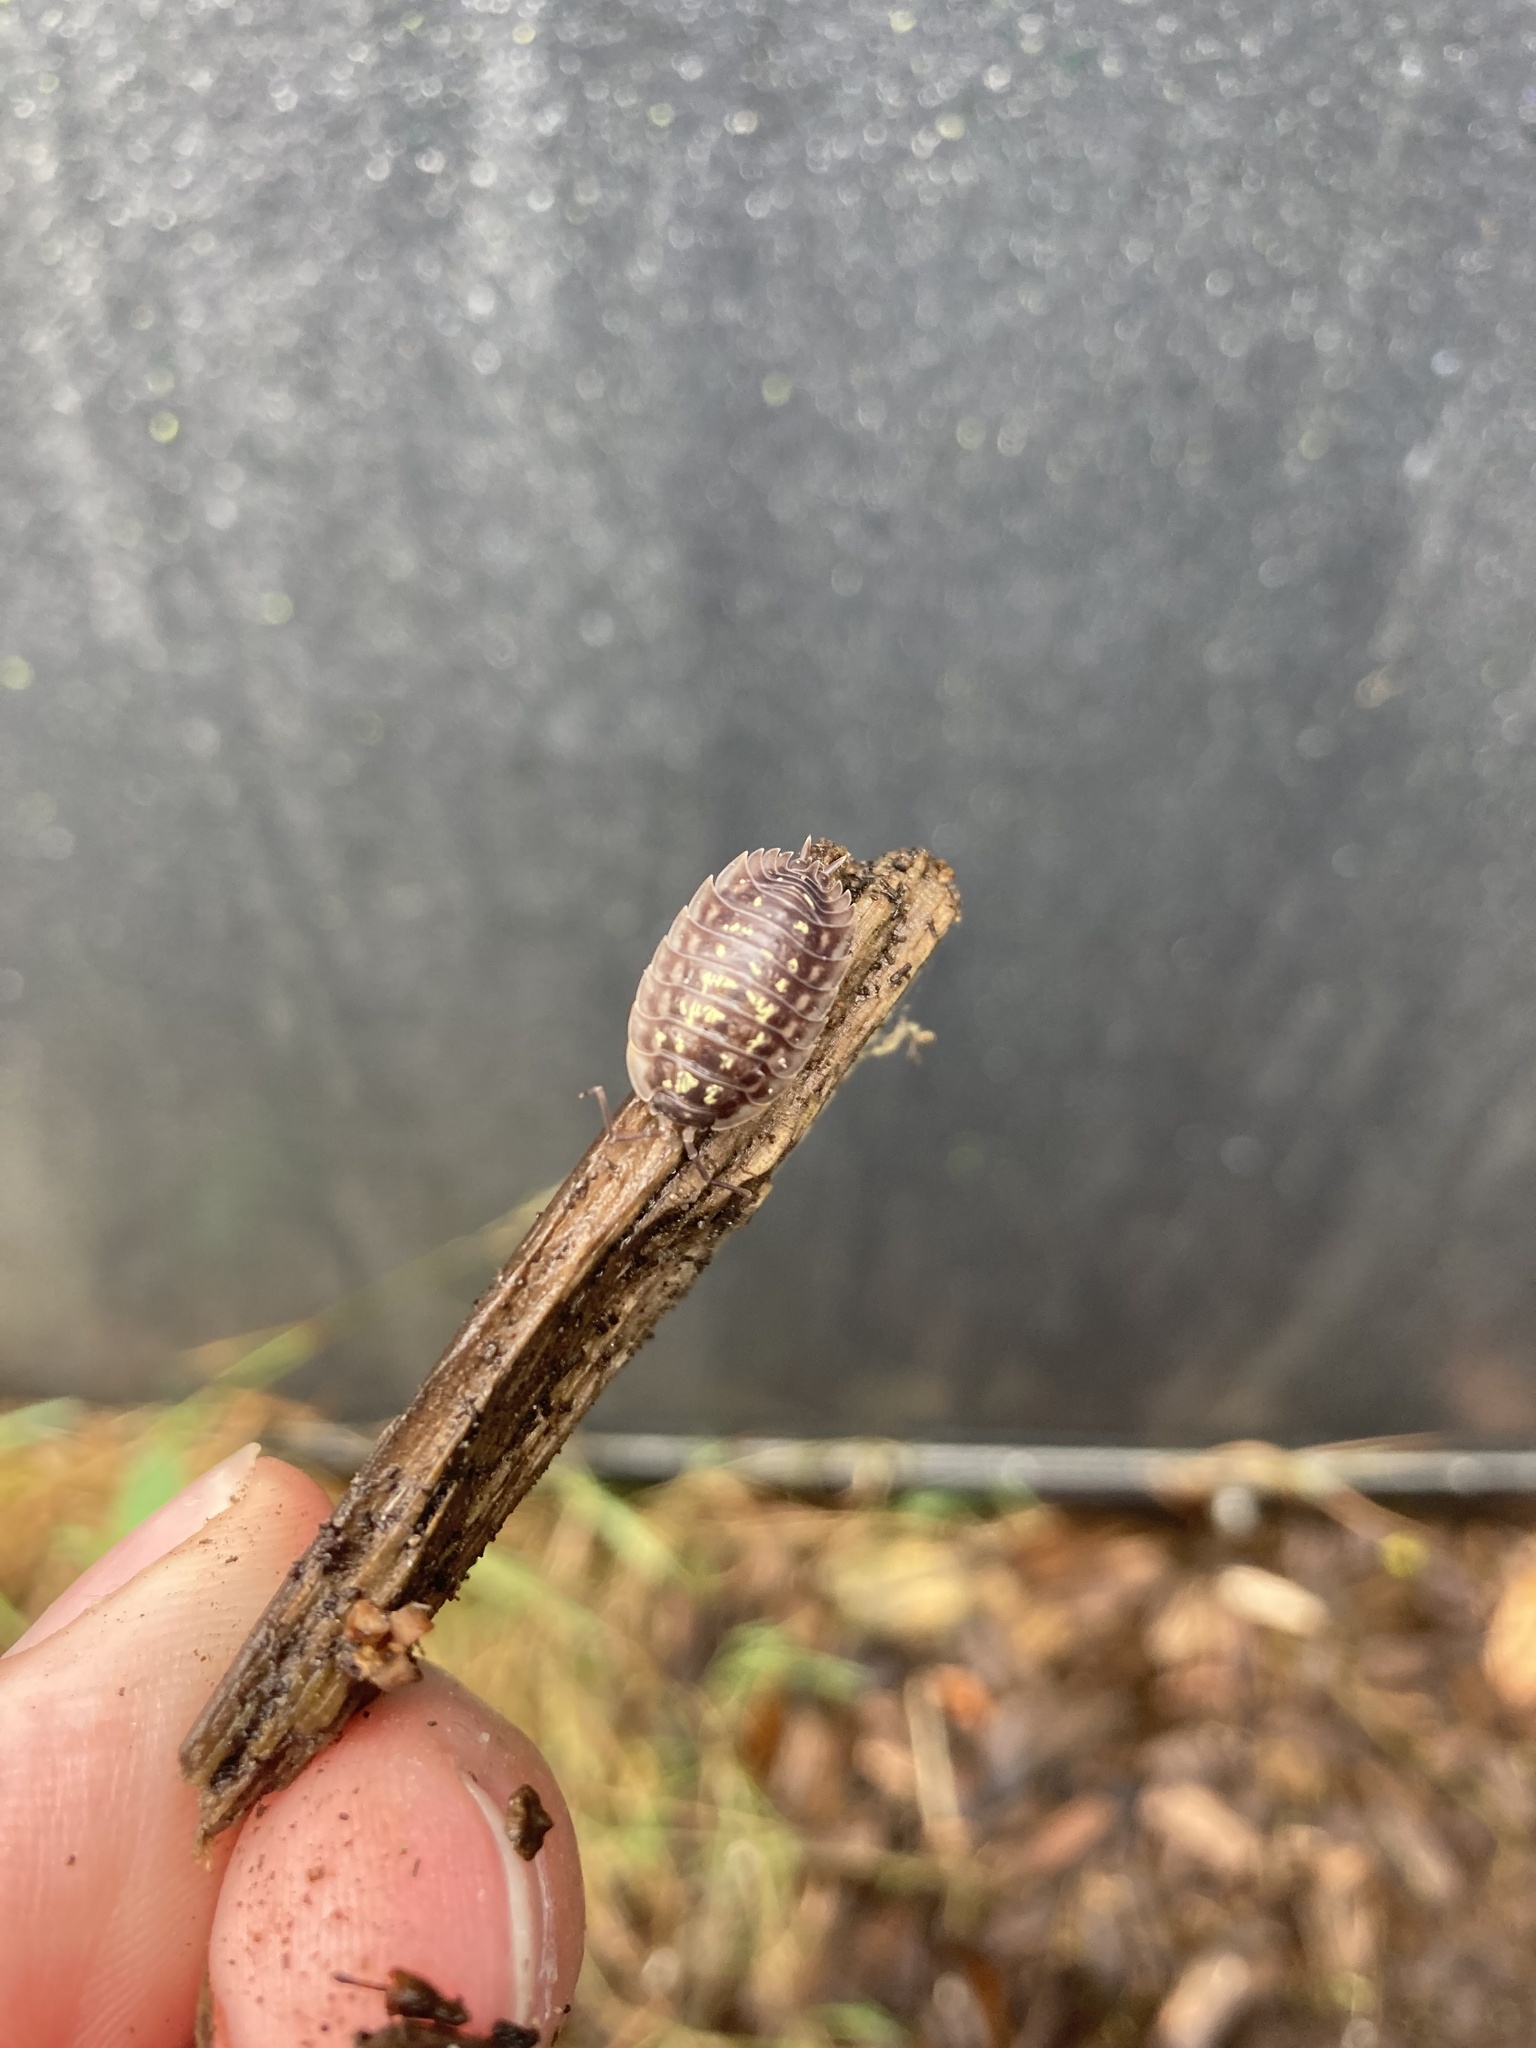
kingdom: Animalia
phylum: Arthropoda
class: Malacostraca
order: Isopoda
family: Oniscidae
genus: Oniscus
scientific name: Oniscus asellus
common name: Common shiny woodlouse
